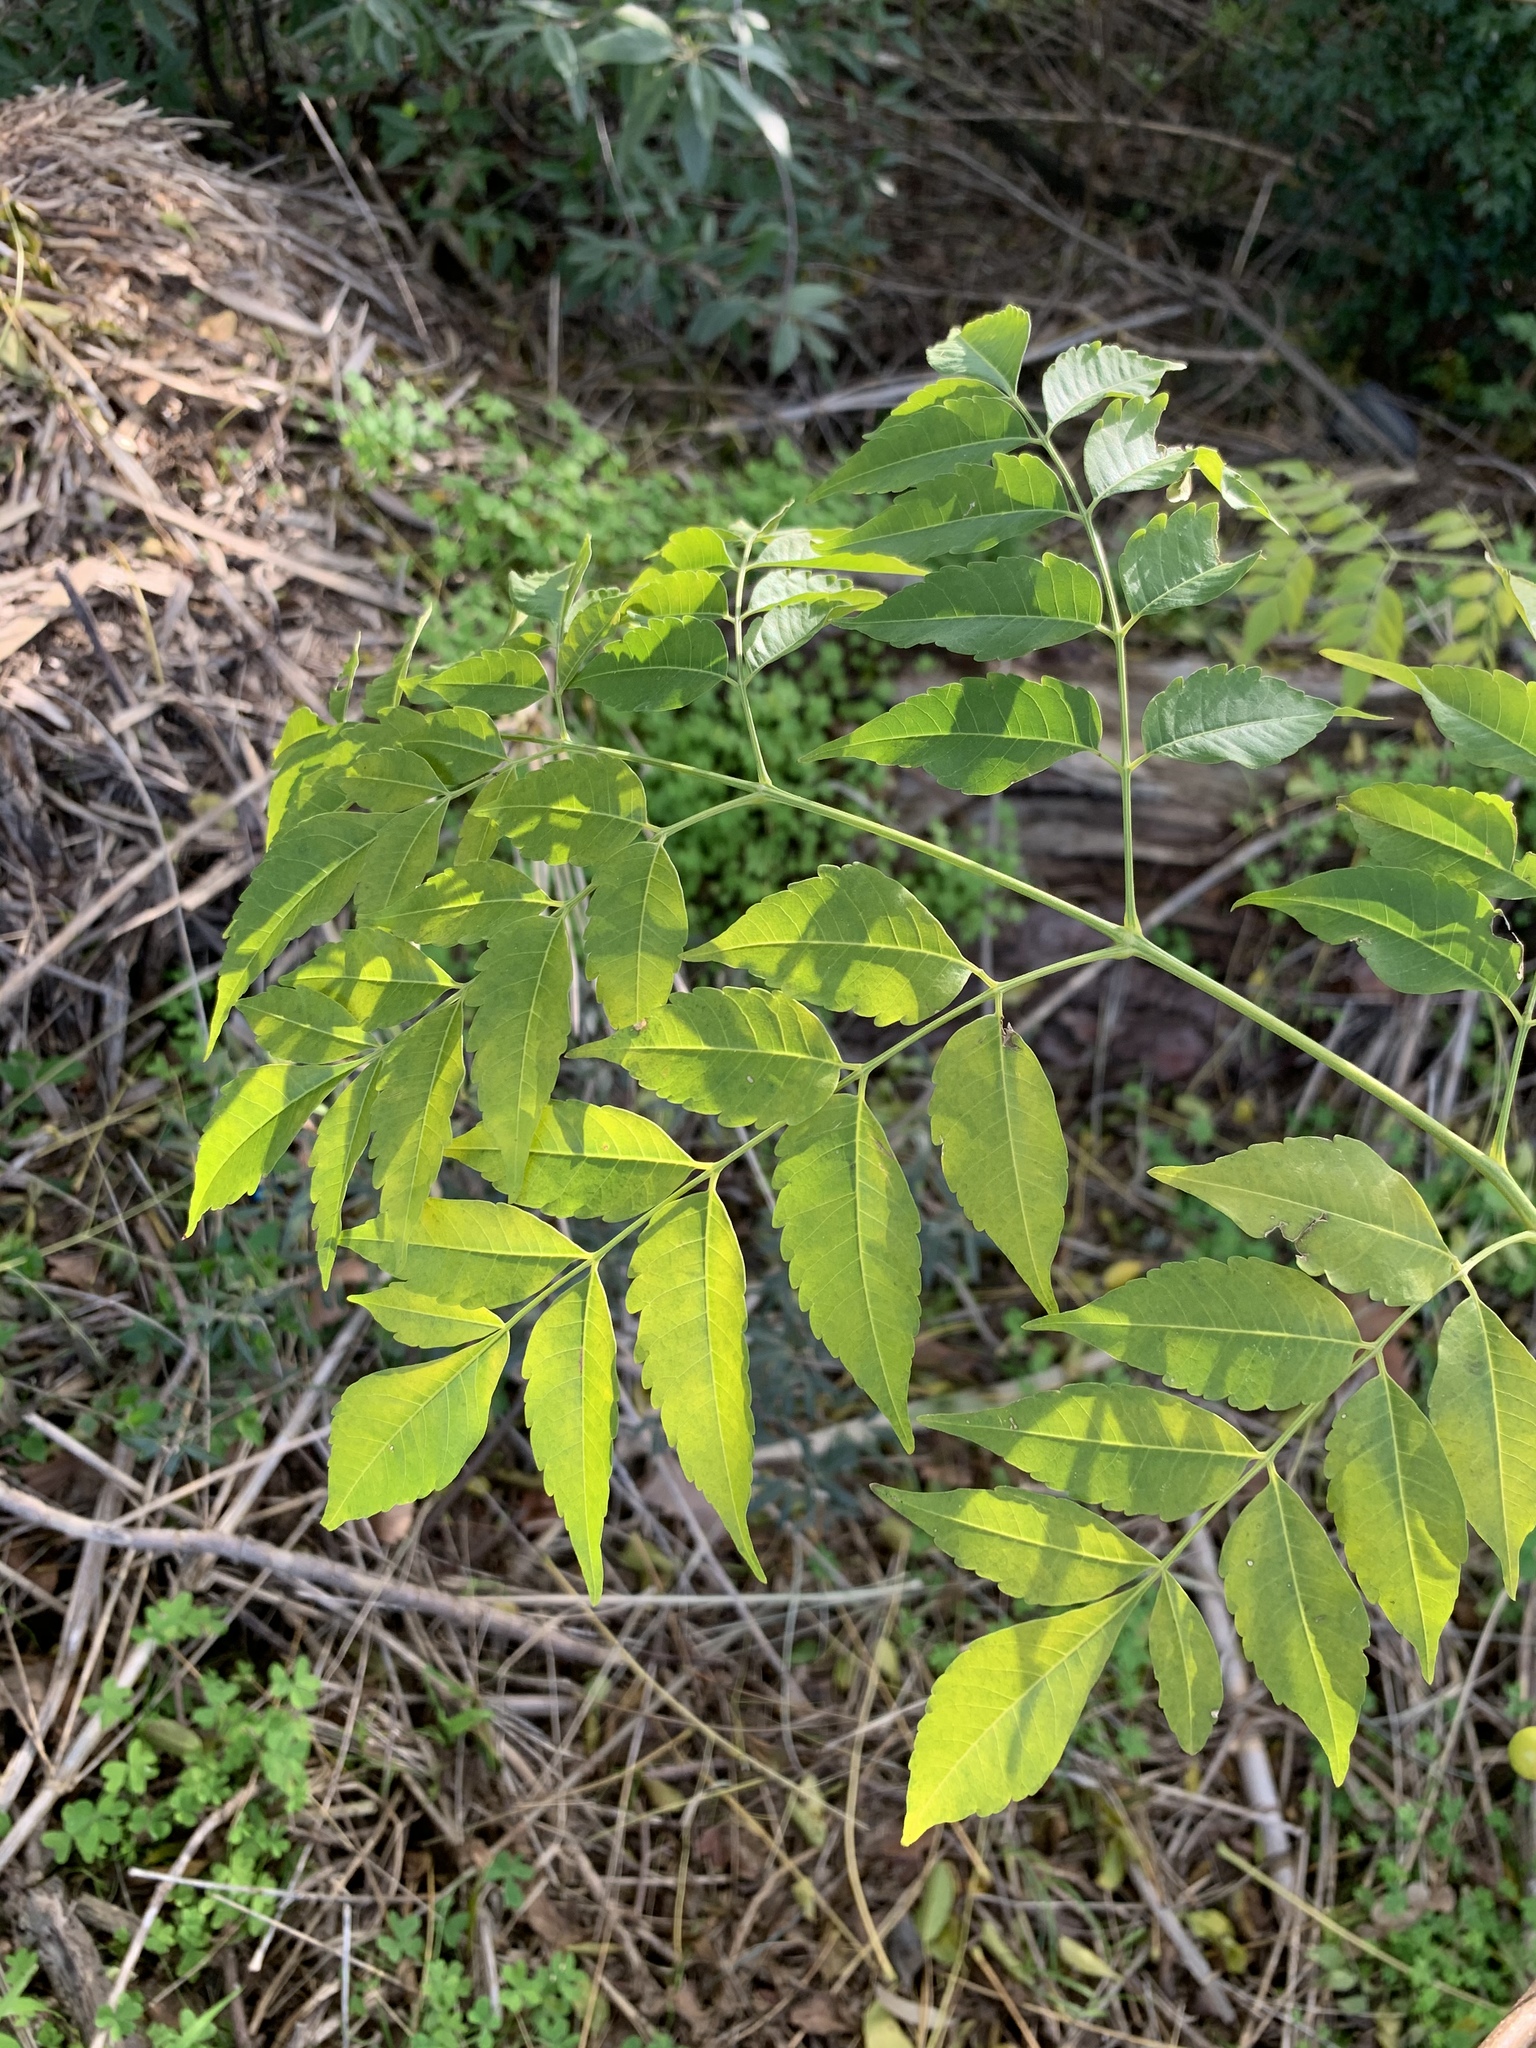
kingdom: Plantae
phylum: Tracheophyta
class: Magnoliopsida
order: Sapindales
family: Meliaceae
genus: Melia
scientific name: Melia azedarach
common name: Chinaberrytree
